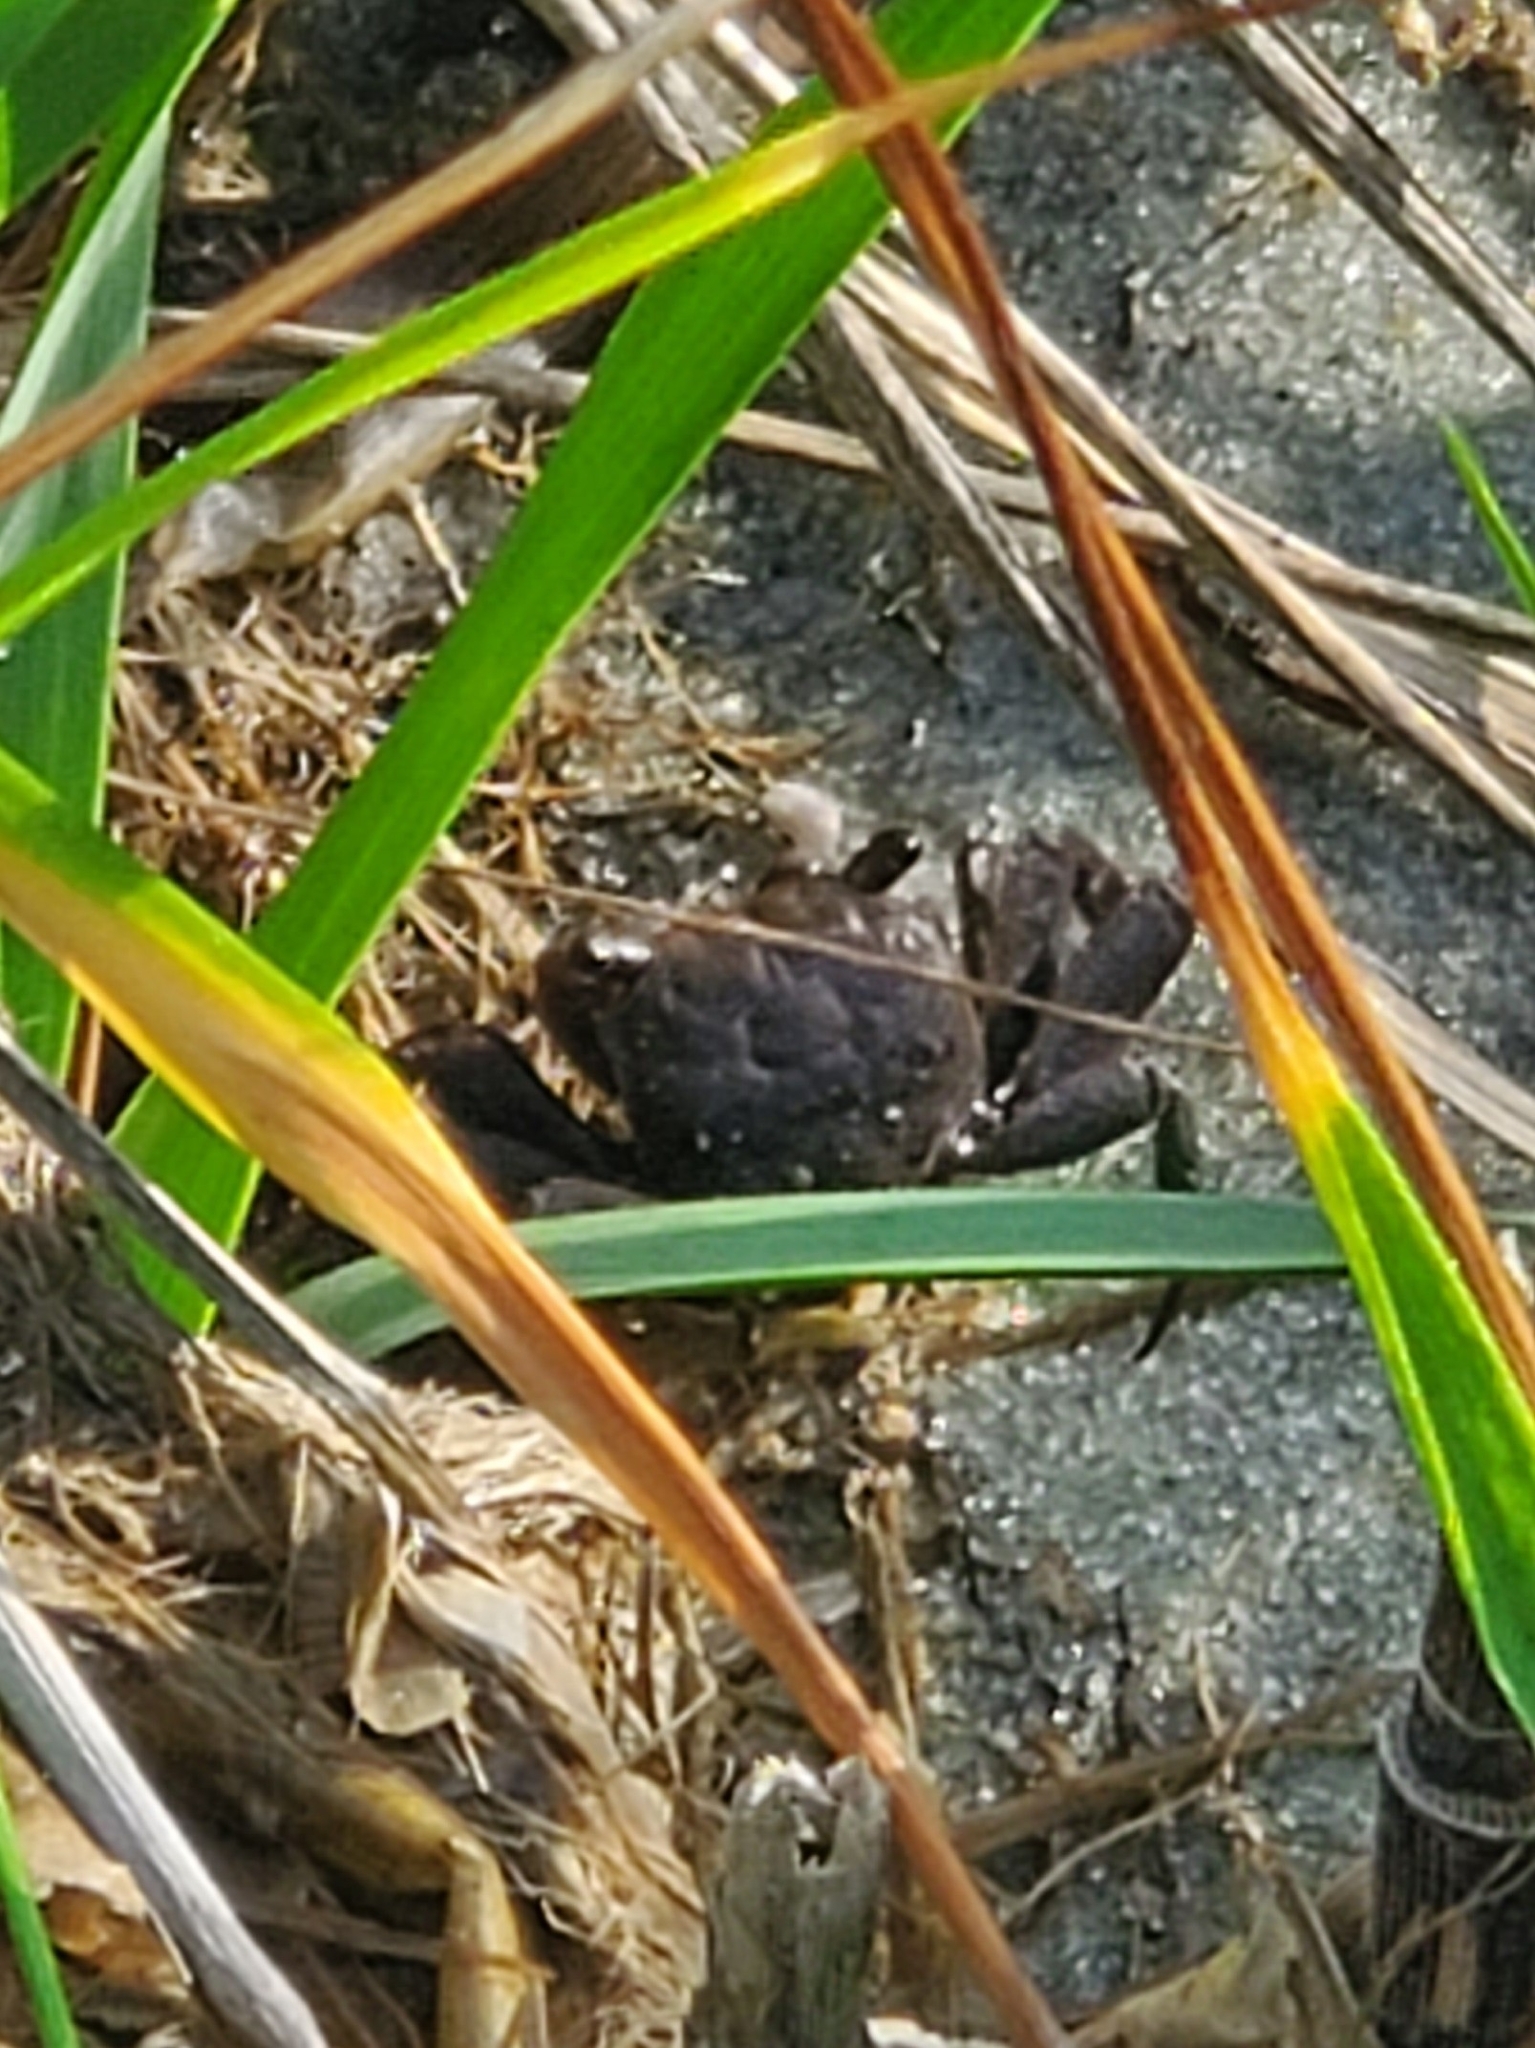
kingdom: Animalia
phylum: Arthropoda
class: Malacostraca
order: Decapoda
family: Sesarmidae
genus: Armases
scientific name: Armases cinereum
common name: Squareback marsh crab
